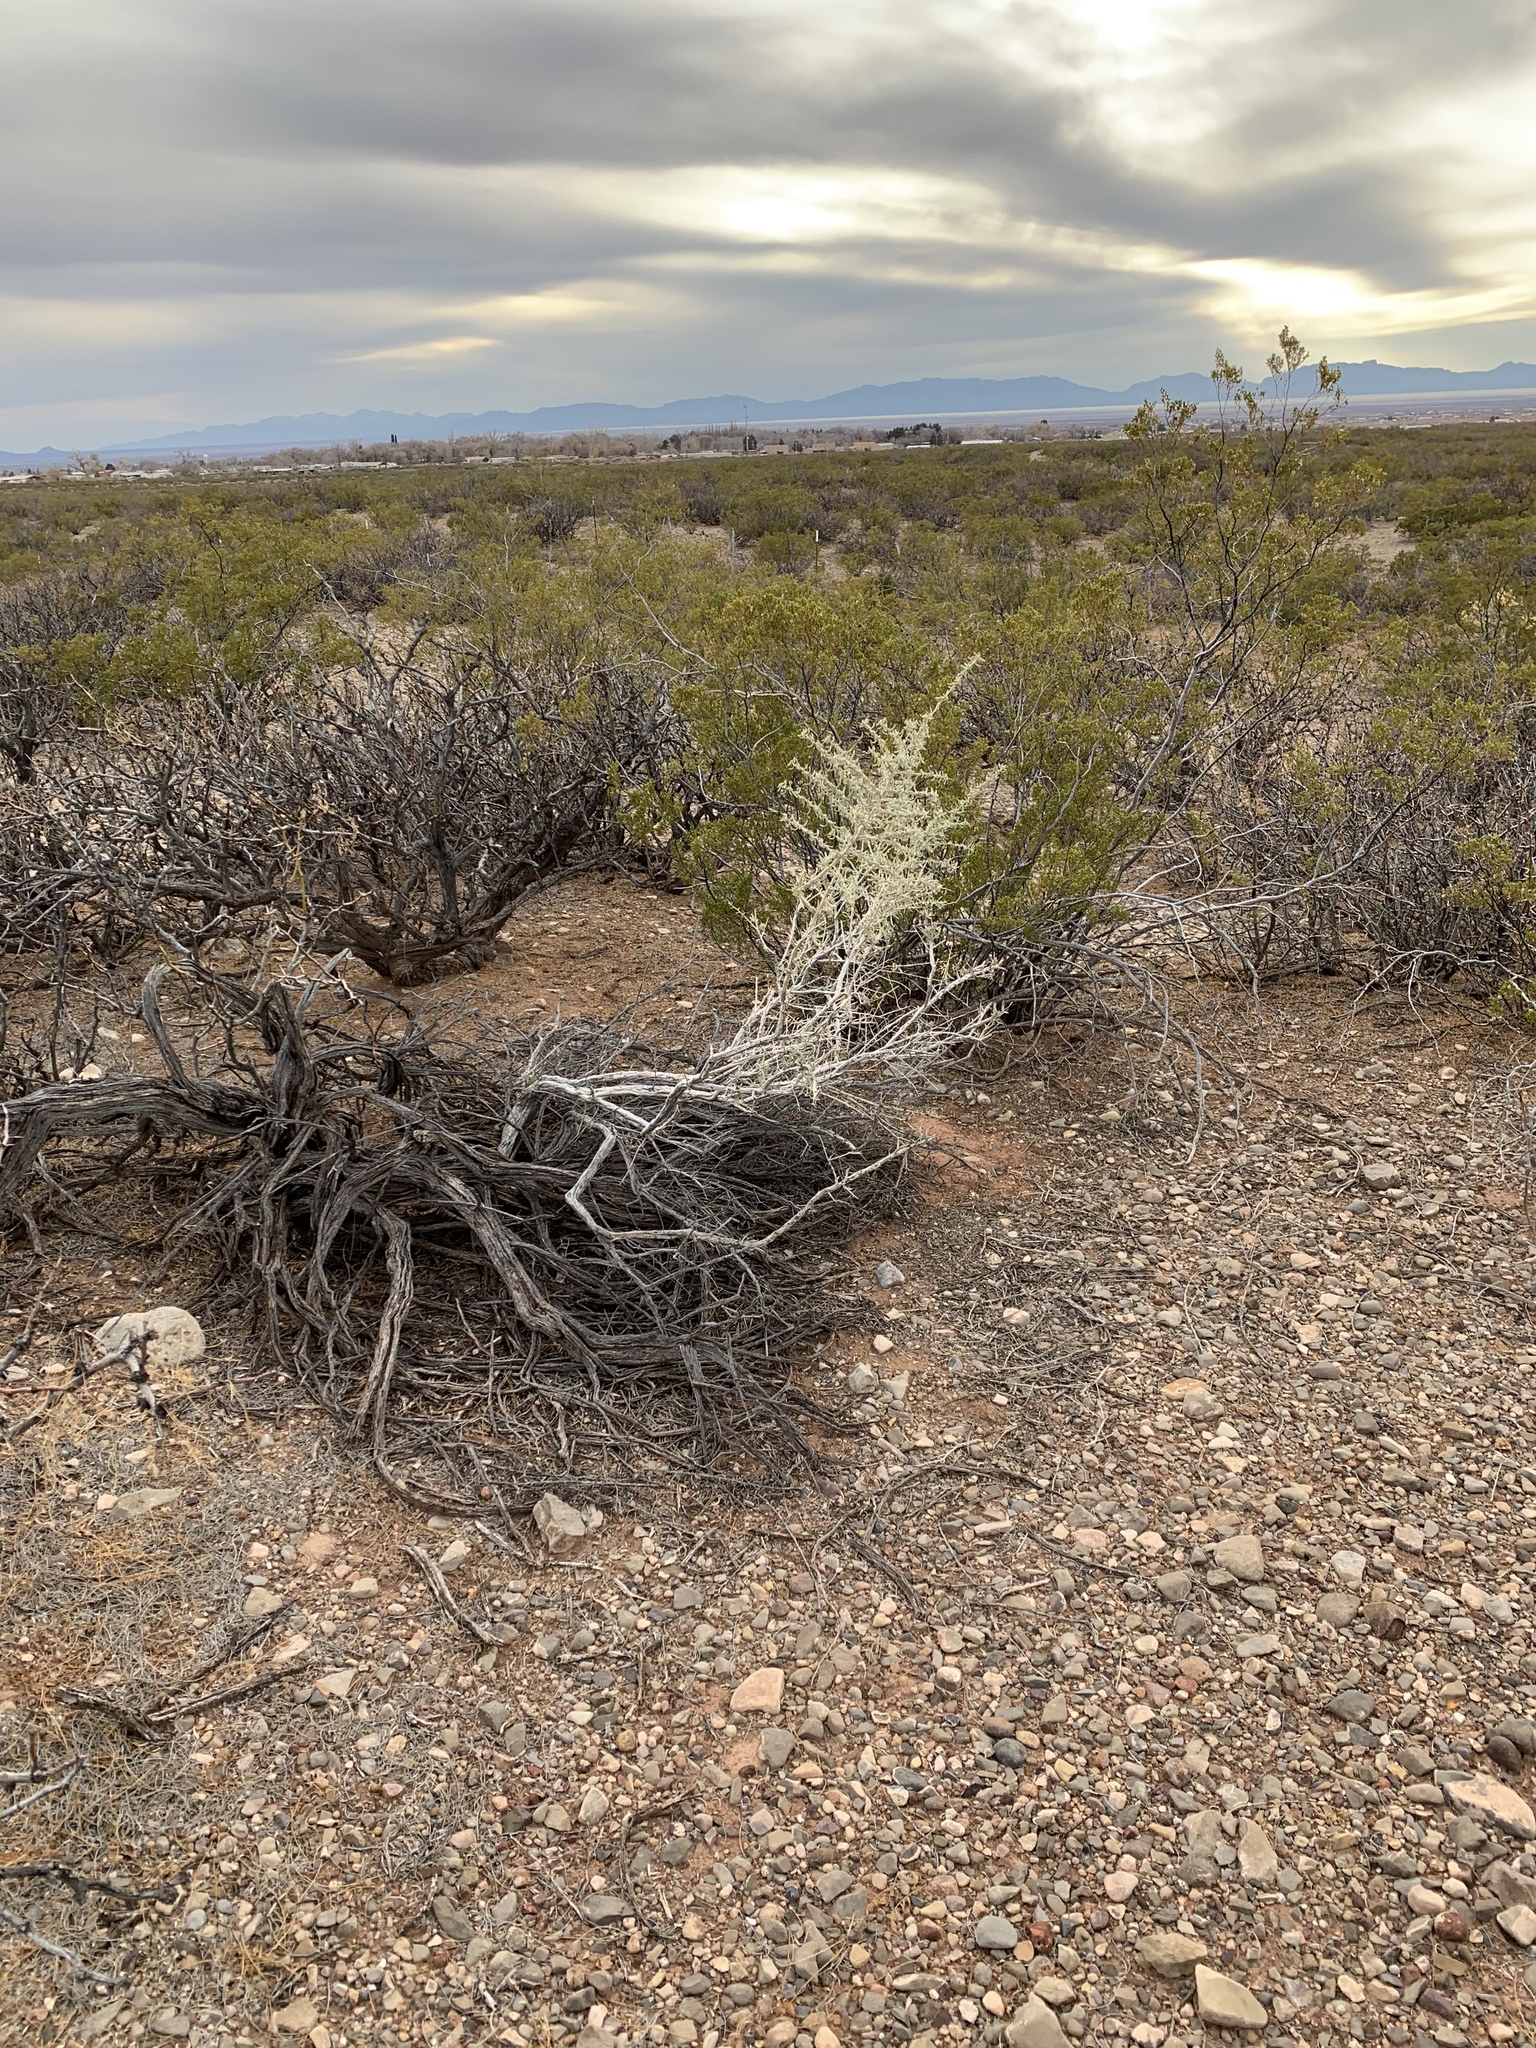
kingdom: Plantae
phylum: Tracheophyta
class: Magnoliopsida
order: Caryophyllales
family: Amaranthaceae
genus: Atriplex
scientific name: Atriplex canescens
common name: Four-wing saltbush
